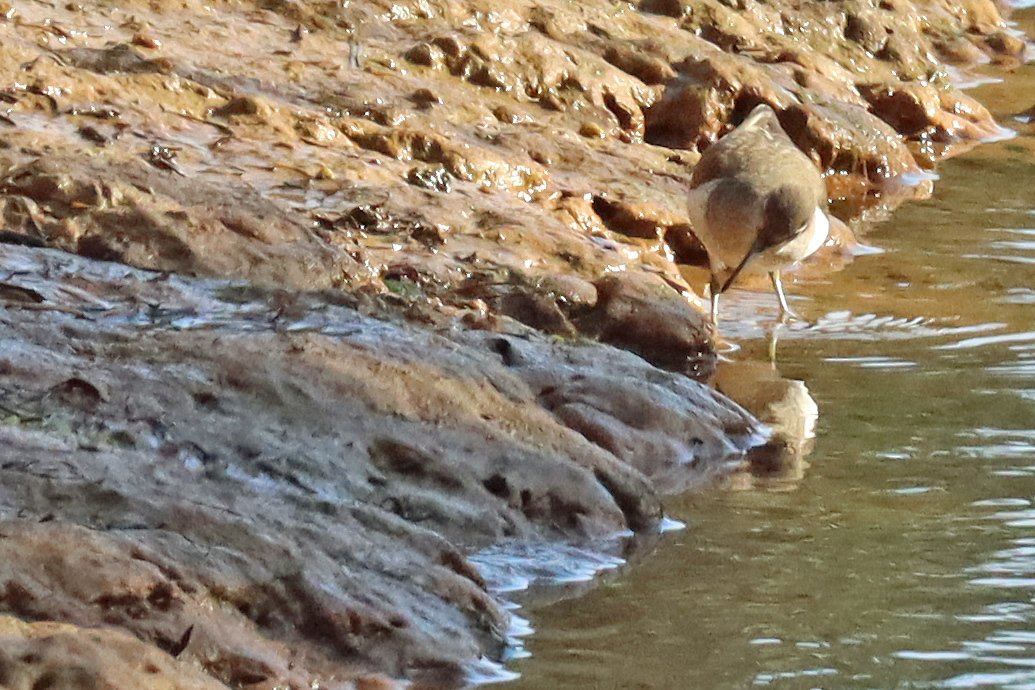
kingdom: Animalia
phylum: Chordata
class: Aves
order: Charadriiformes
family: Scolopacidae
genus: Actitis
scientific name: Actitis hypoleucos
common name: Common sandpiper
